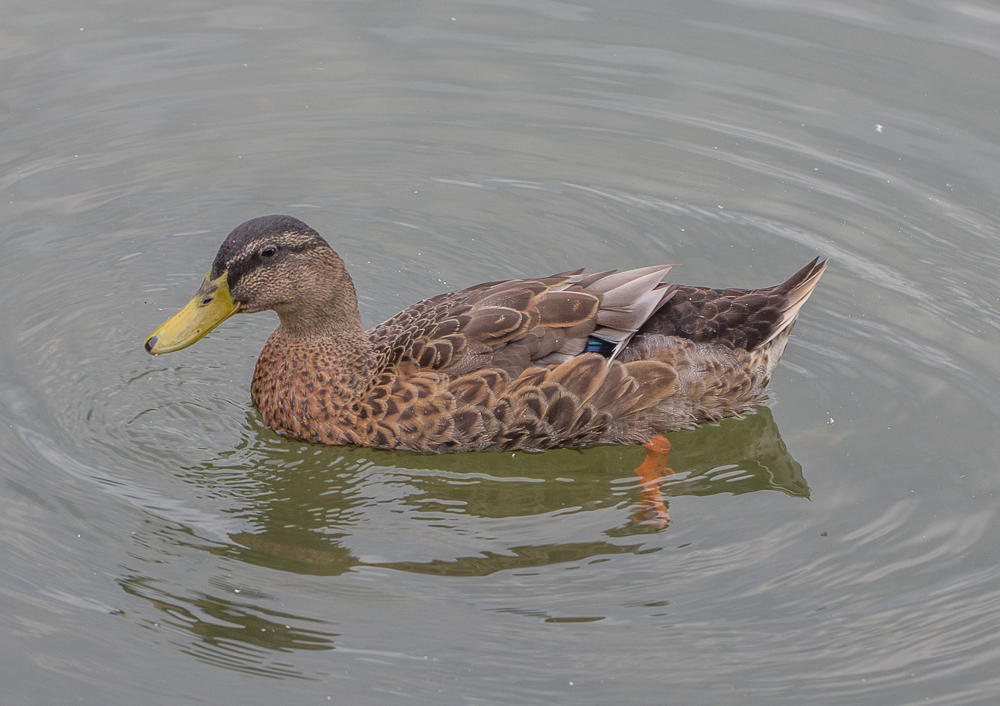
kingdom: Animalia
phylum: Chordata
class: Aves
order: Anseriformes
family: Anatidae
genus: Anas
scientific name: Anas platyrhynchos
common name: Mallard
